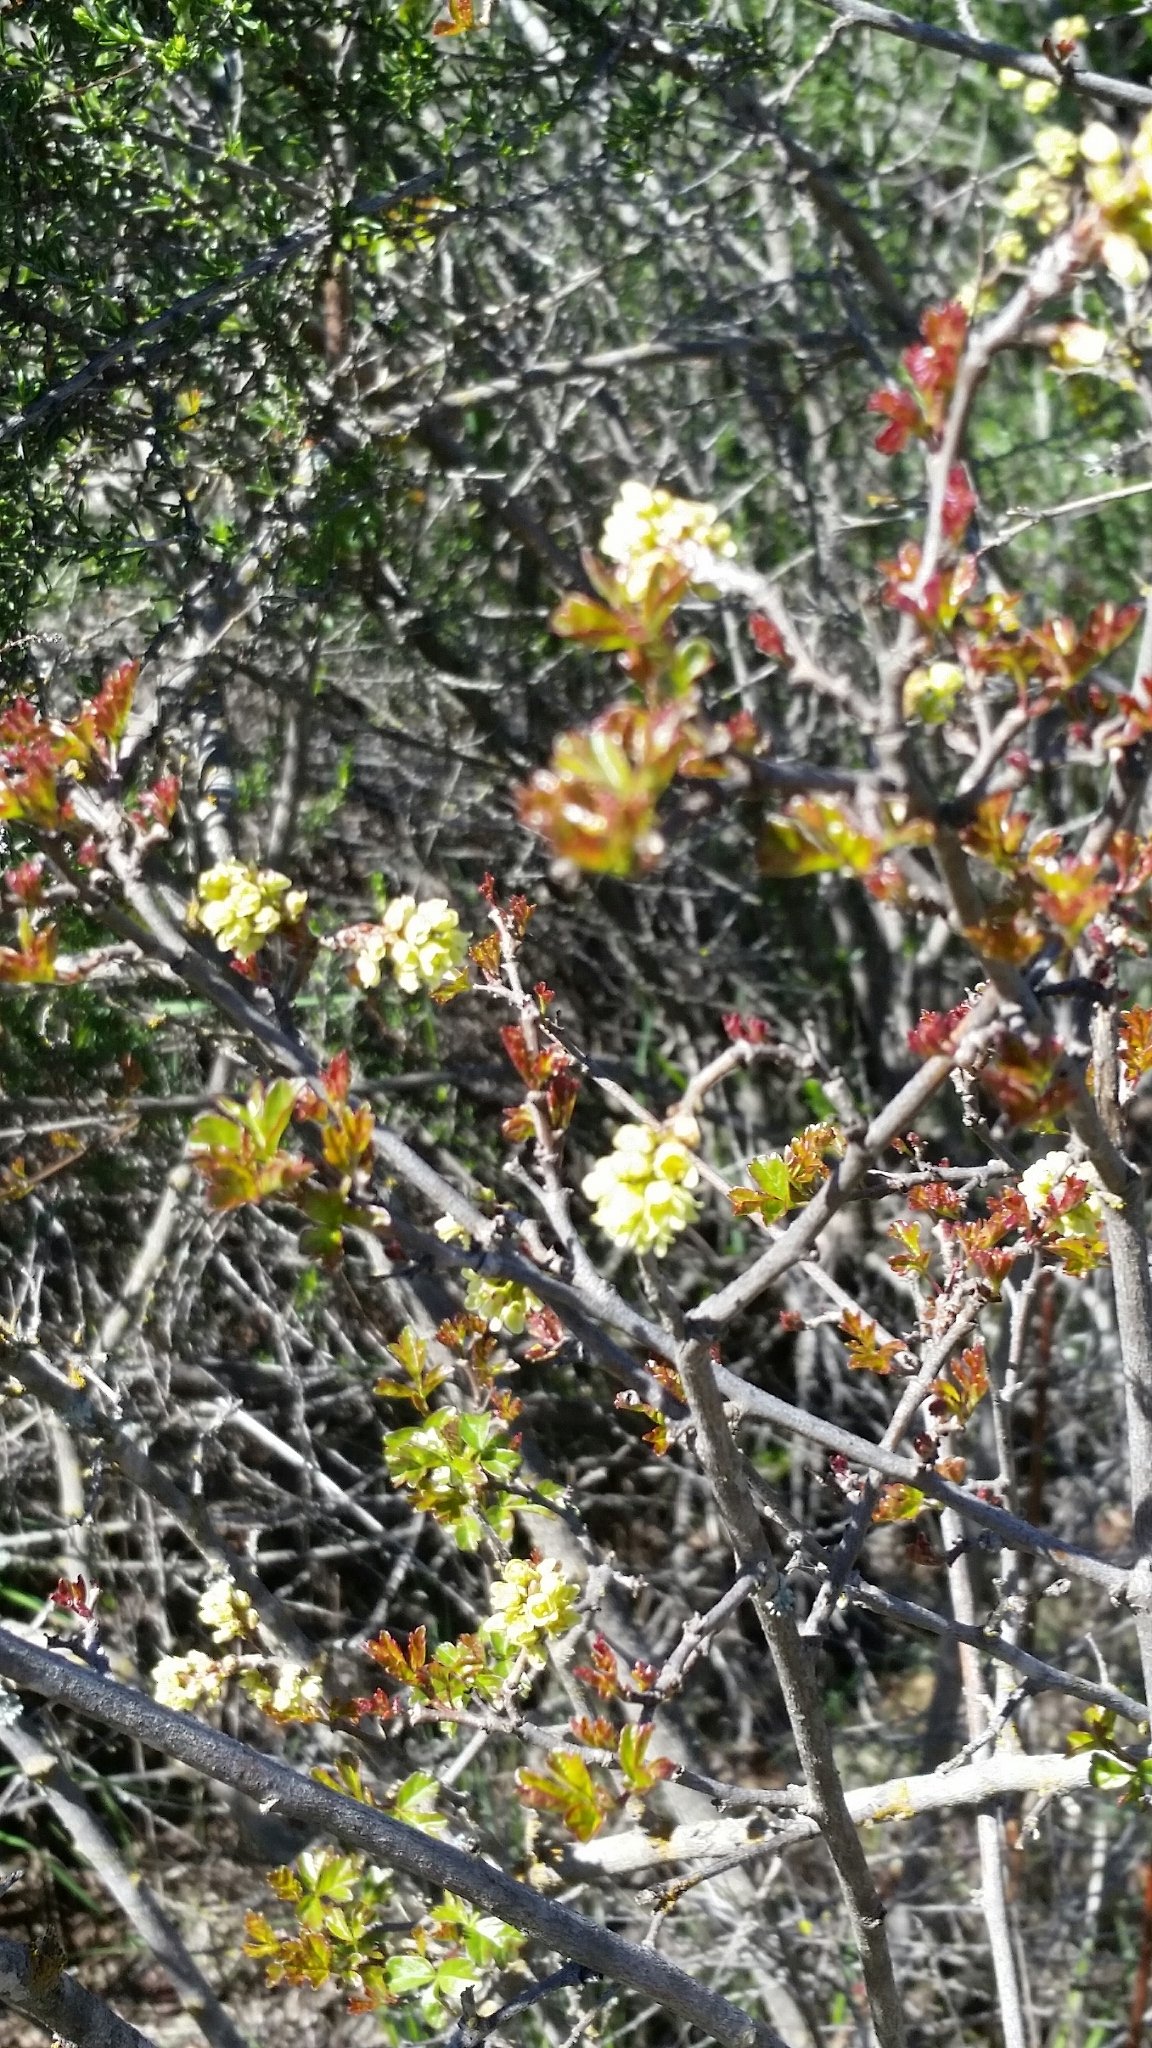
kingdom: Plantae
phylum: Tracheophyta
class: Magnoliopsida
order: Sapindales
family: Anacardiaceae
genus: Rhus
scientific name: Rhus aromatica
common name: Aromatic sumac
